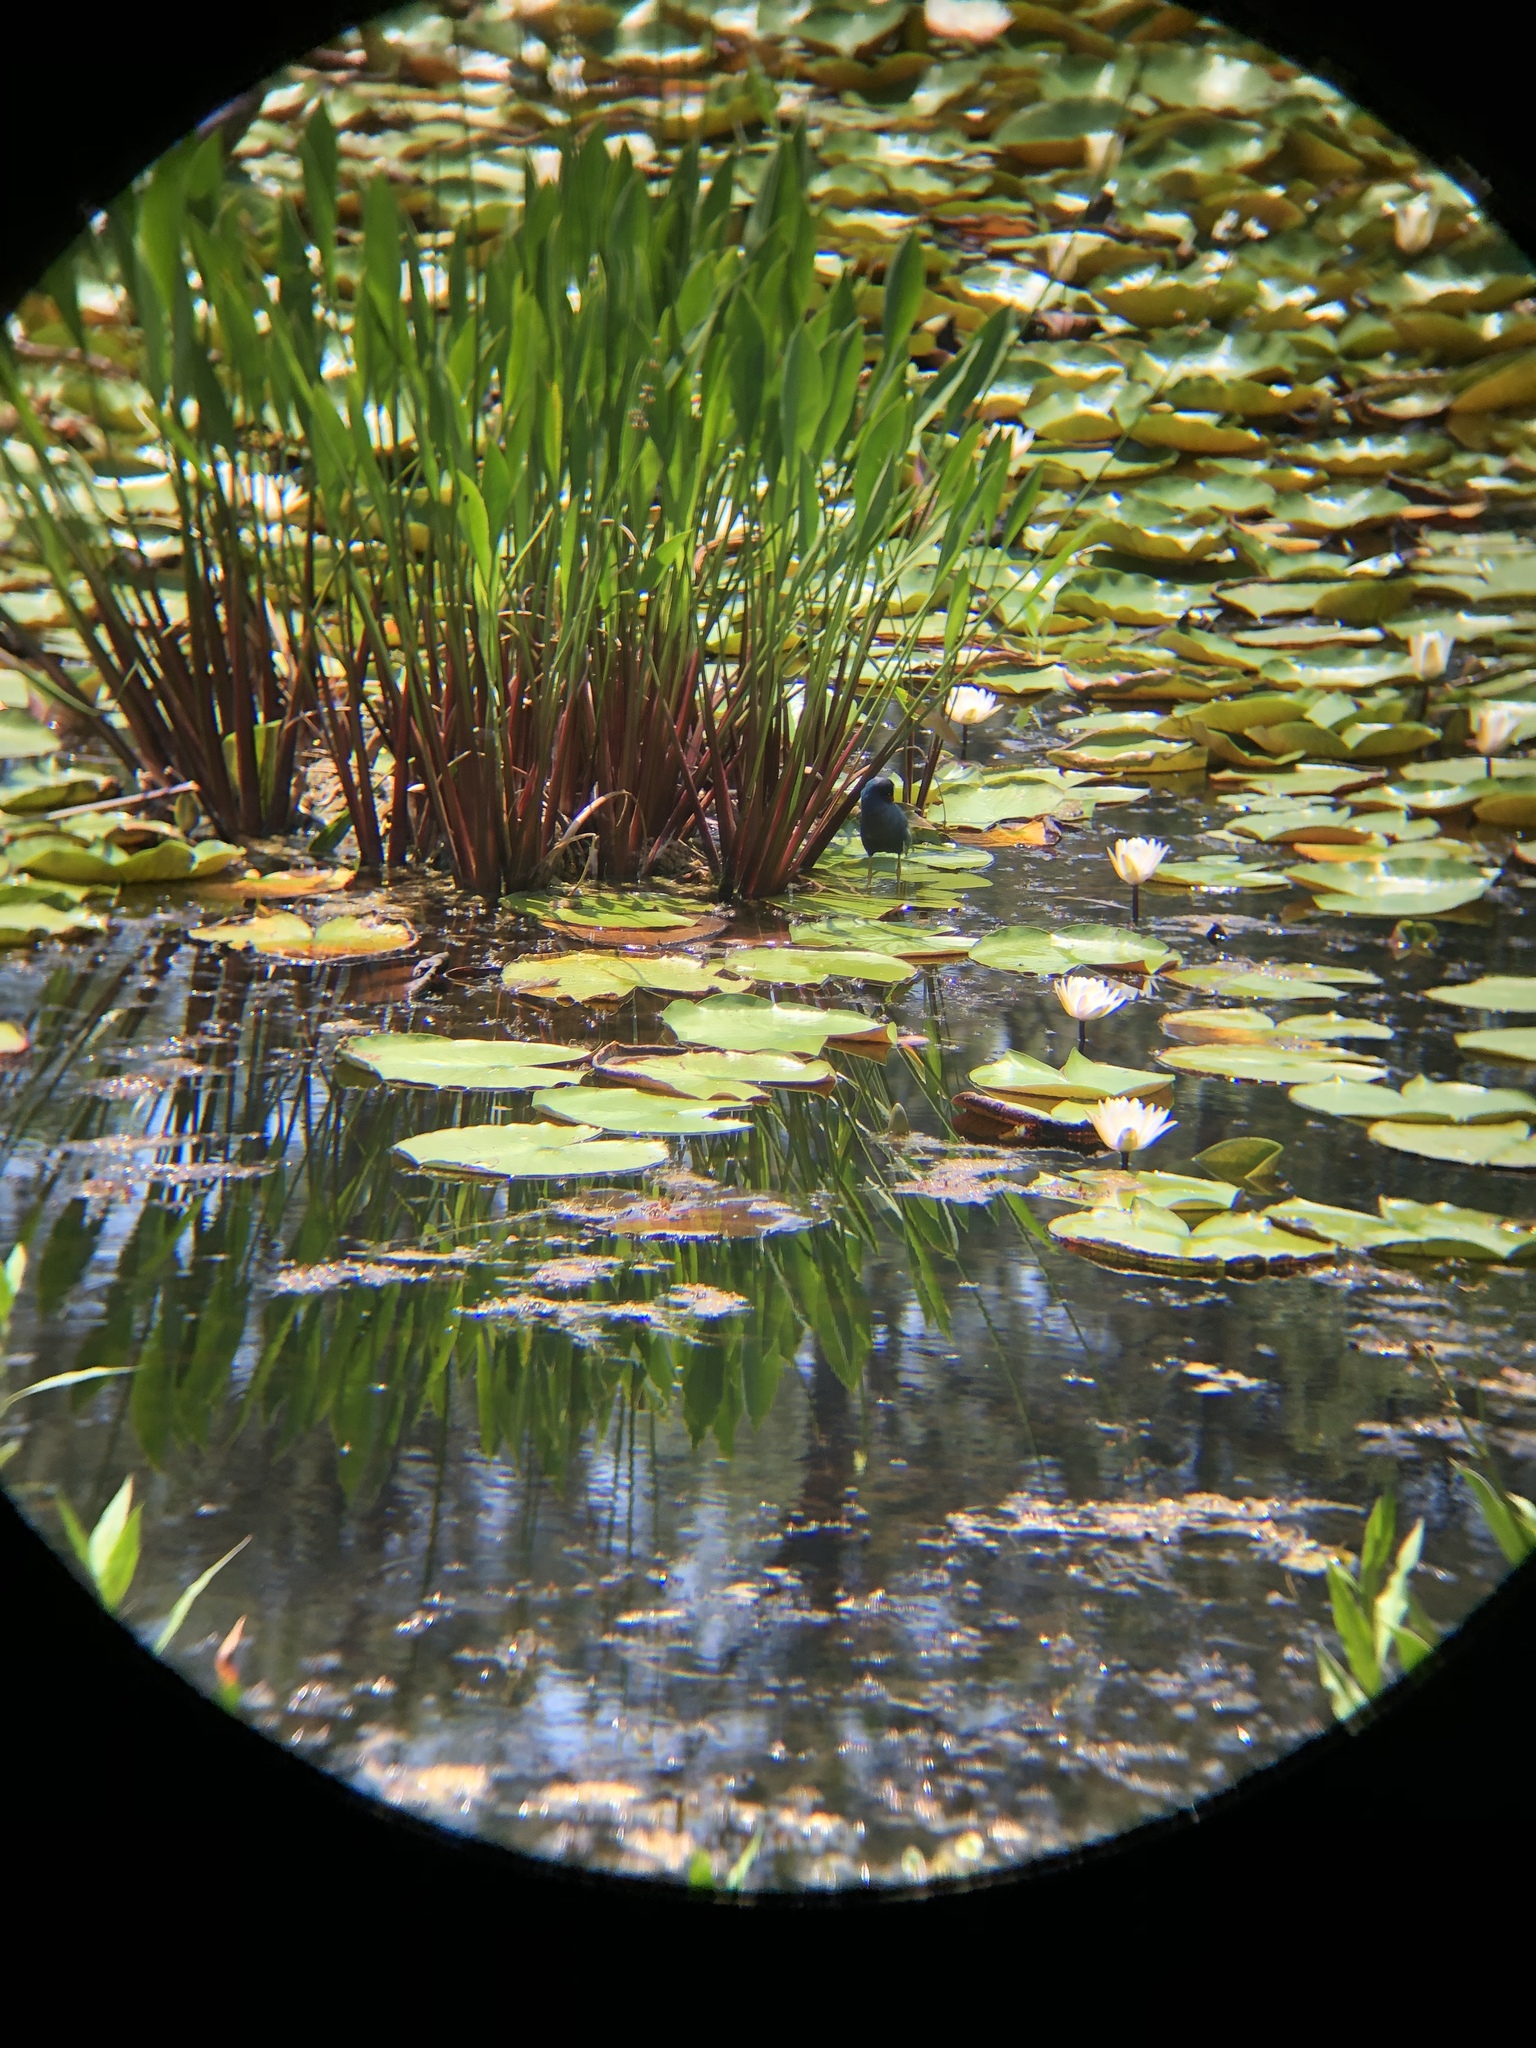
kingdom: Animalia
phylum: Chordata
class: Aves
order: Gruiformes
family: Rallidae
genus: Porphyrio
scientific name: Porphyrio martinica
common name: Purple gallinule
